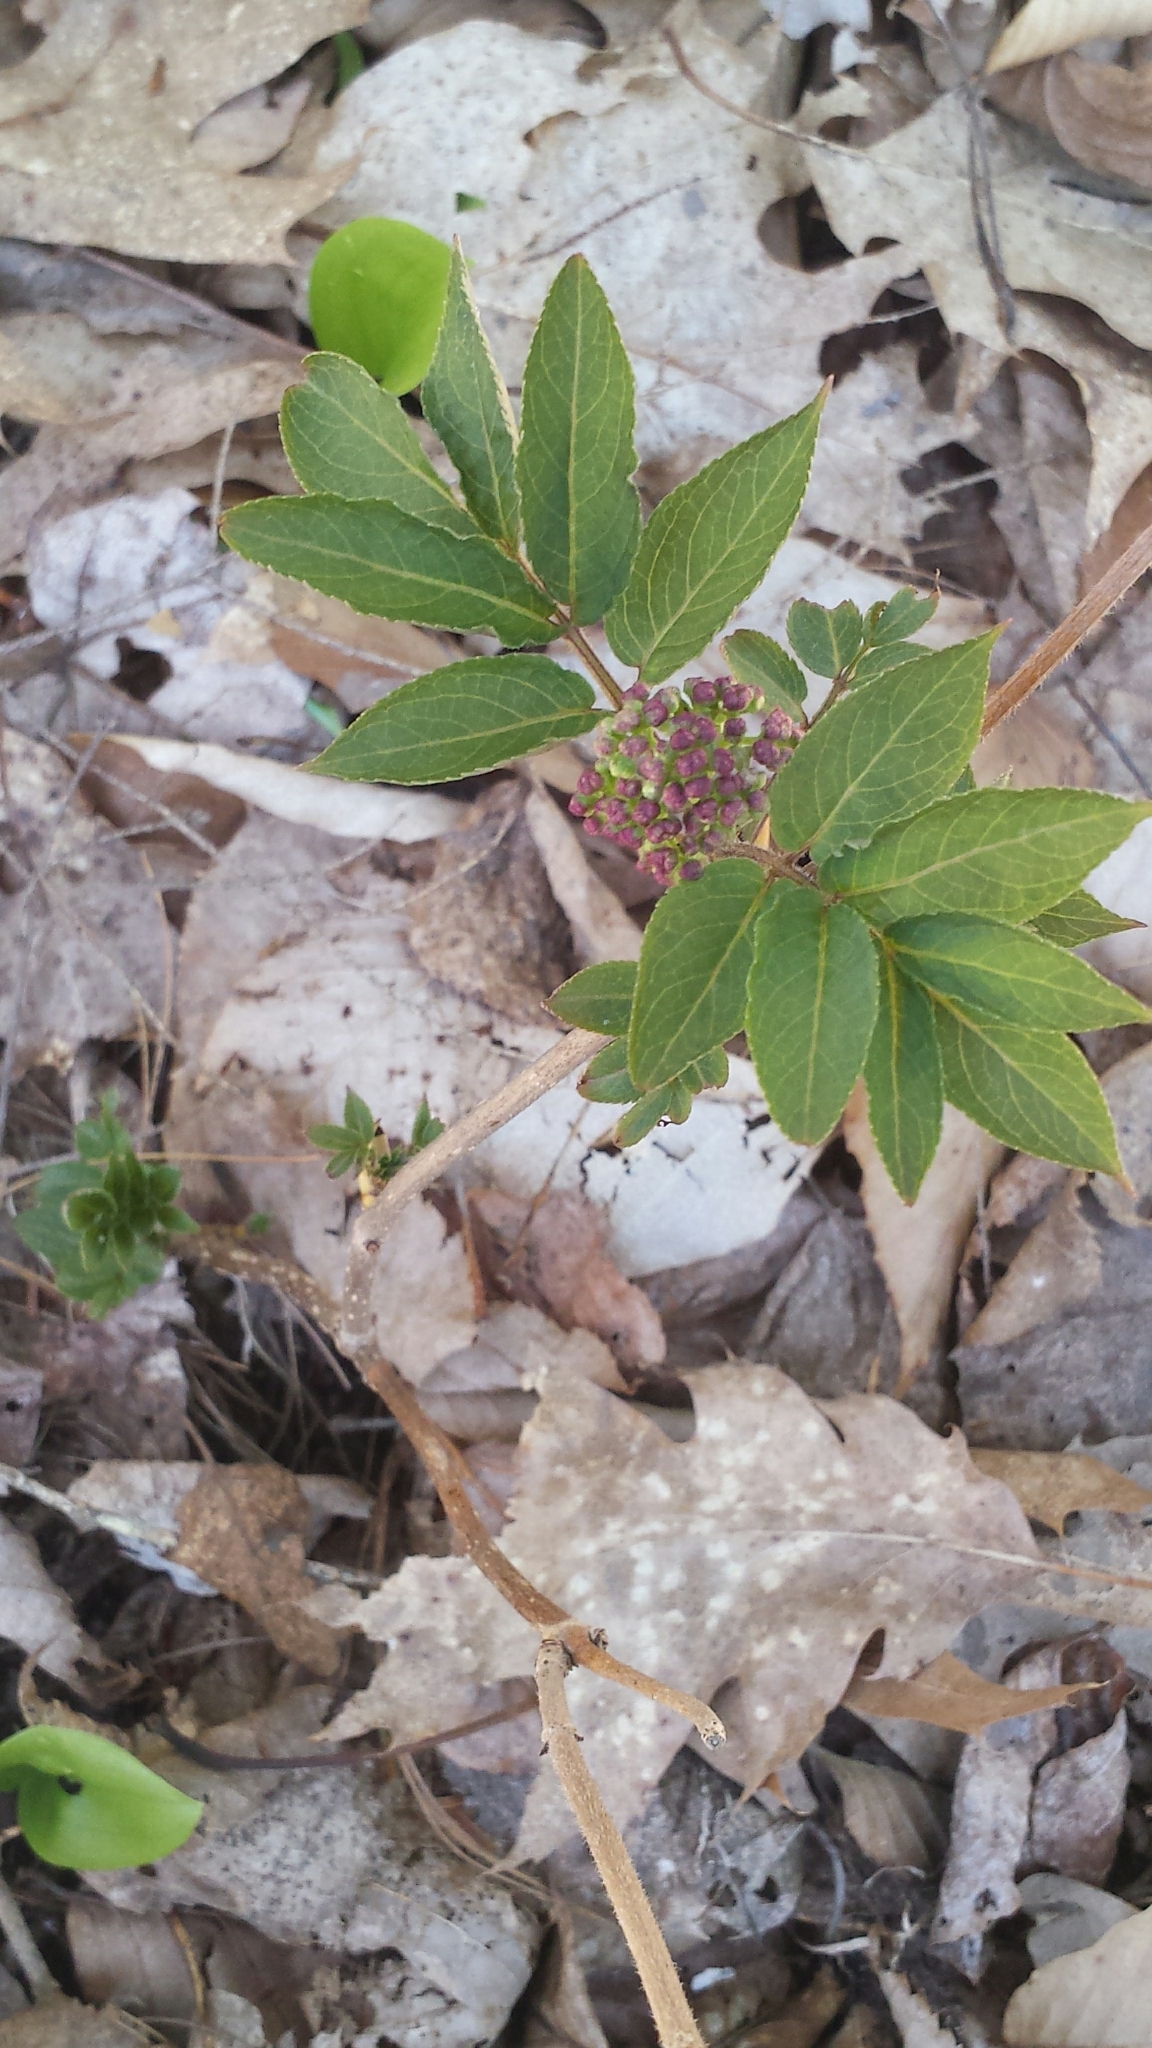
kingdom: Plantae
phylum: Tracheophyta
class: Magnoliopsida
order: Dipsacales
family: Viburnaceae
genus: Sambucus
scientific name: Sambucus racemosa
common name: Red-berried elder
